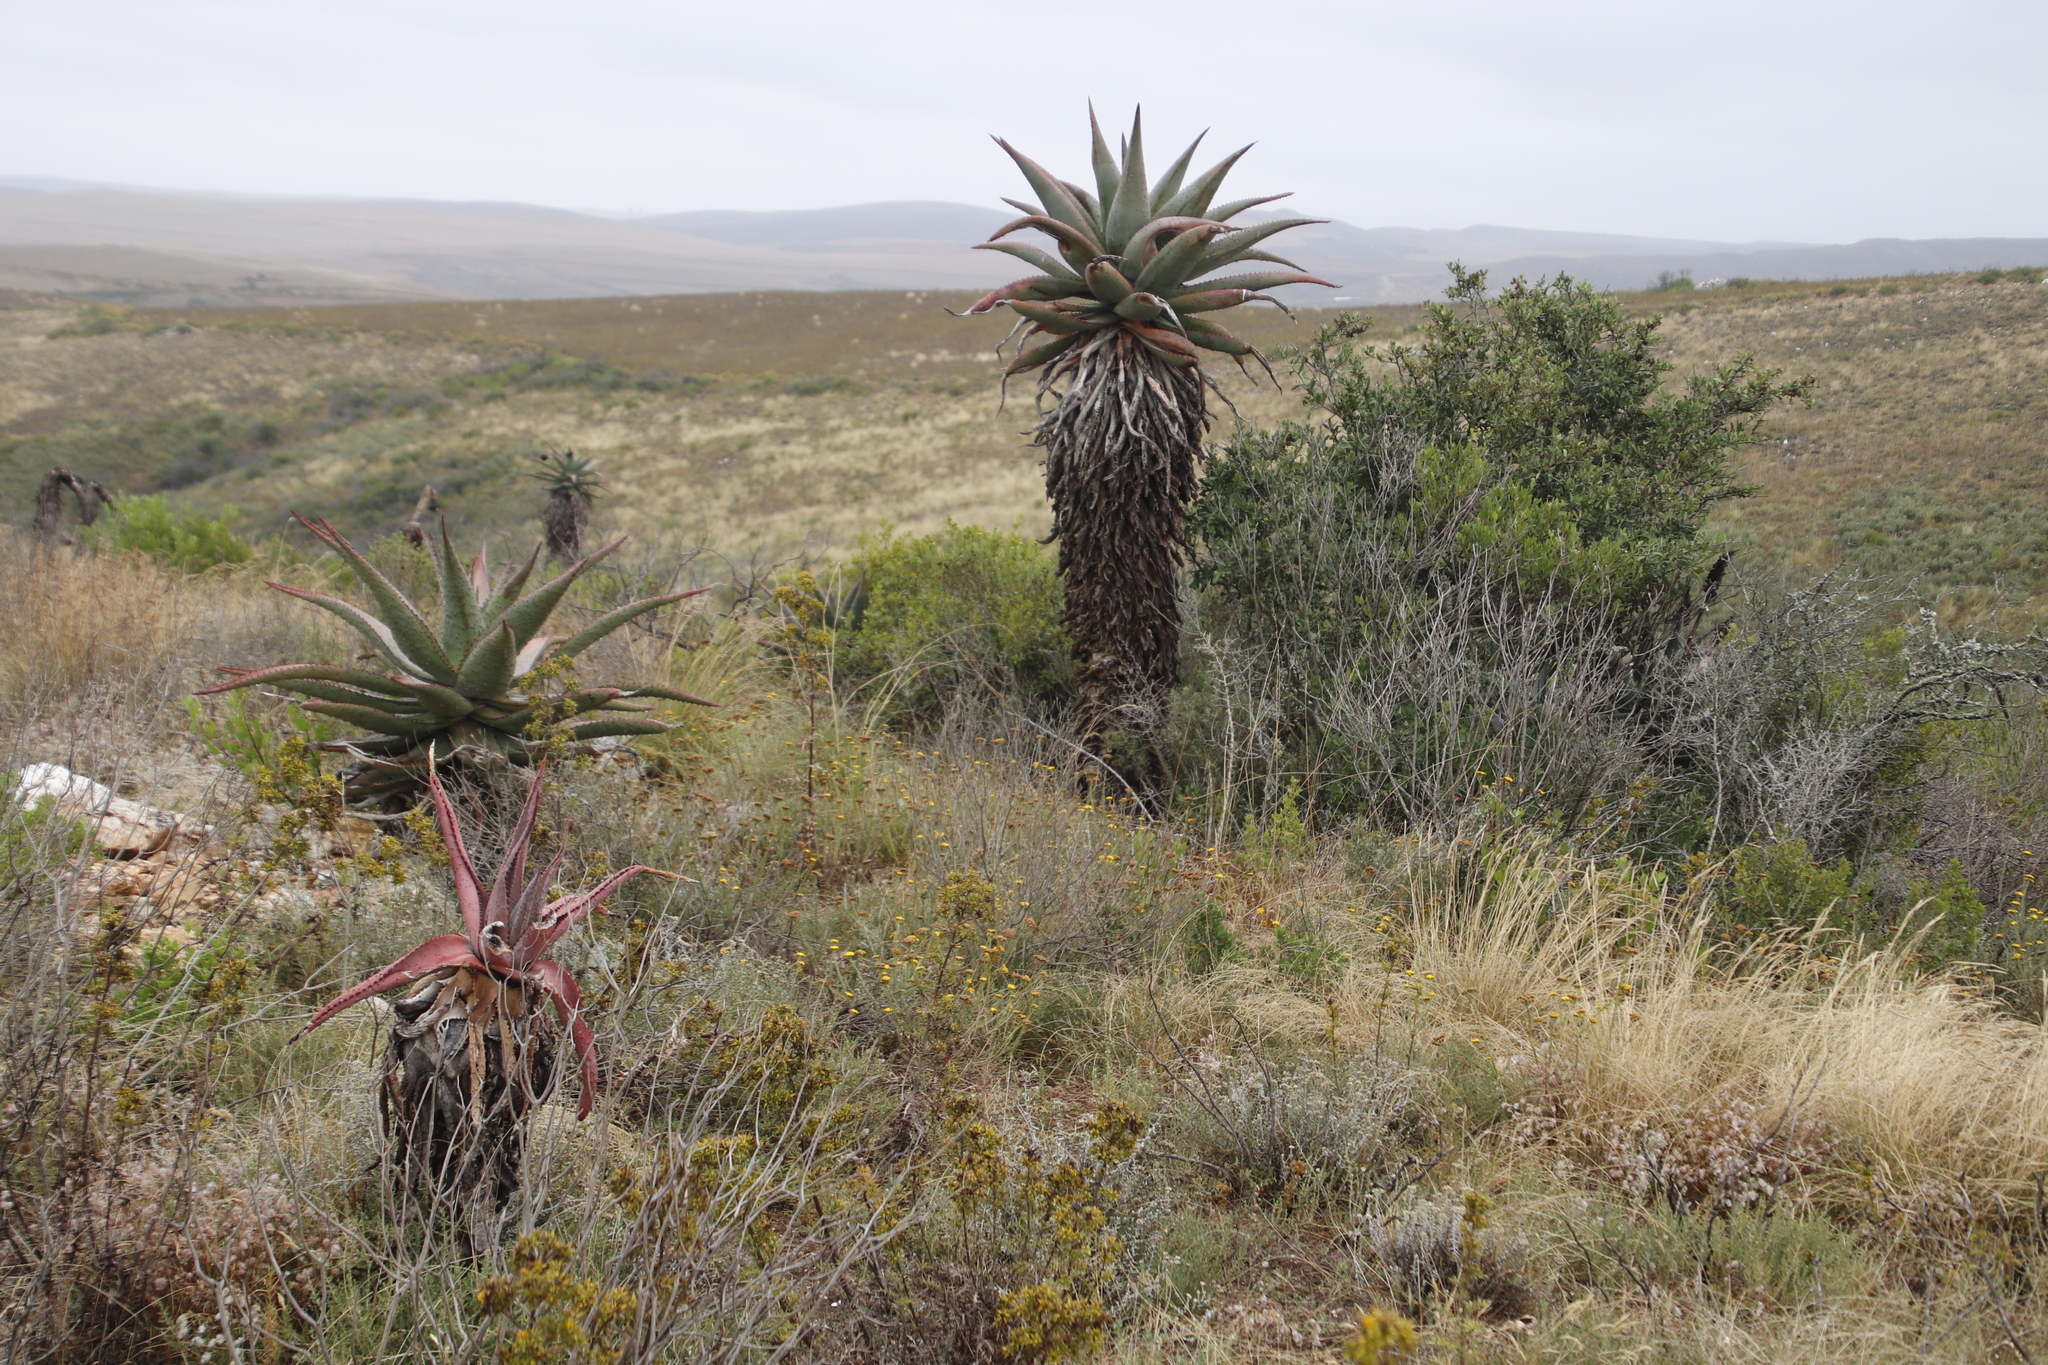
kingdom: Plantae
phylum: Tracheophyta
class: Liliopsida
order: Asparagales
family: Asphodelaceae
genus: Aloe
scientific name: Aloe ferox
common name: Bitter aloe
